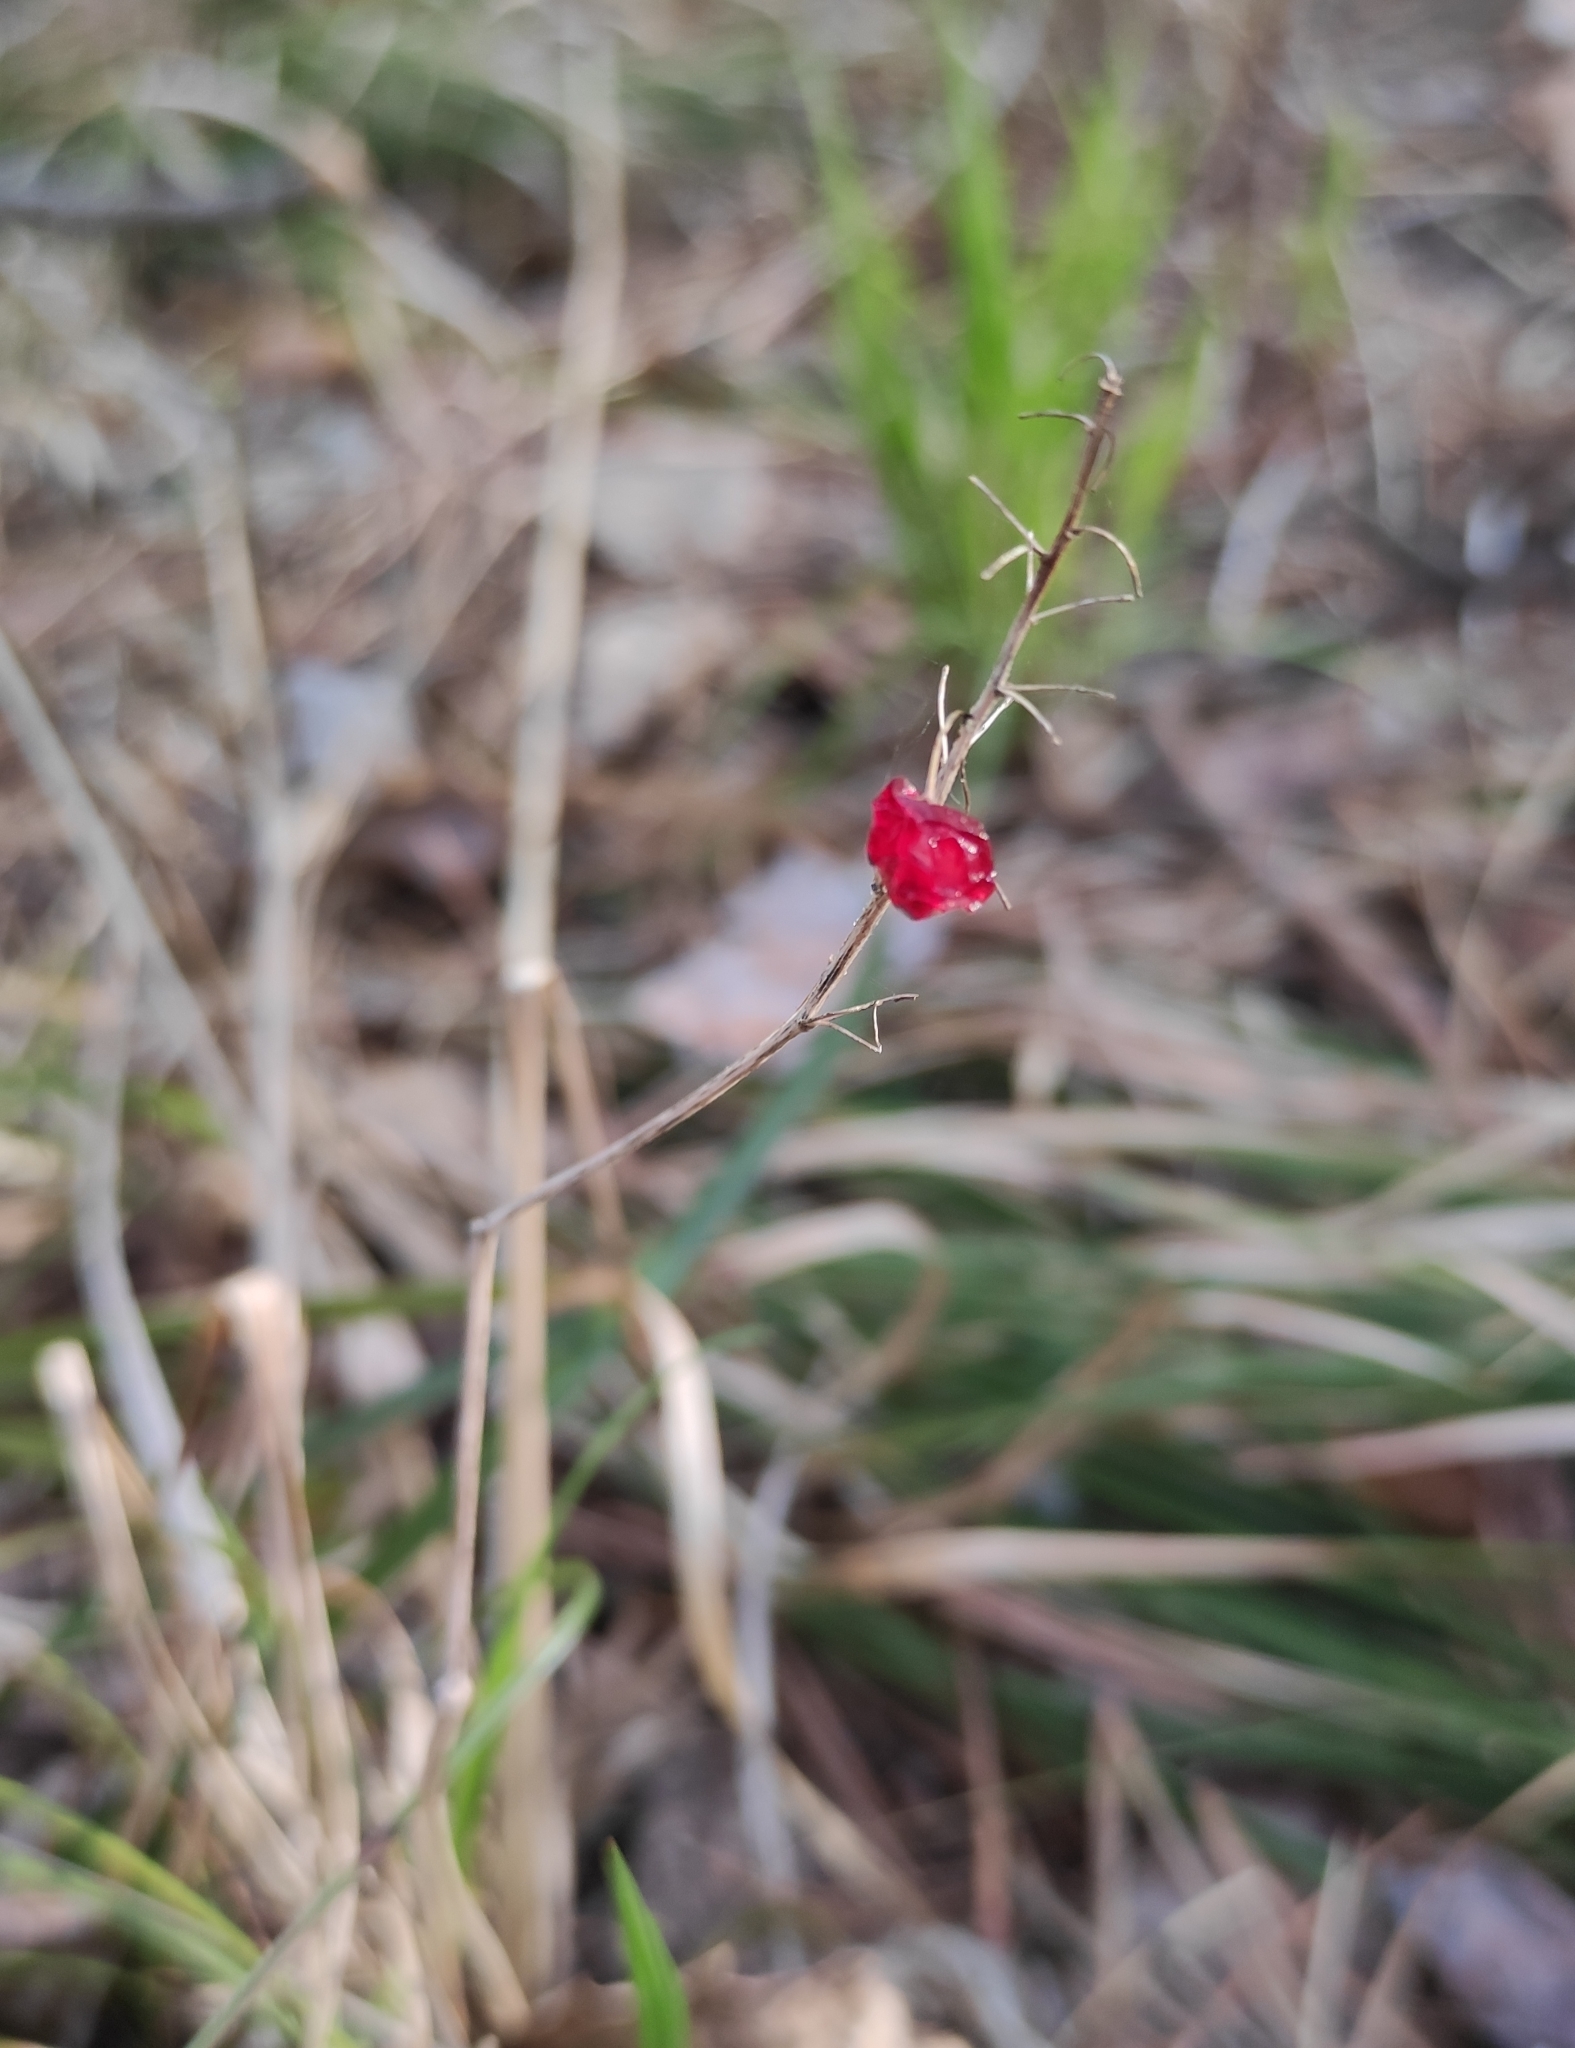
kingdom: Plantae
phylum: Tracheophyta
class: Liliopsida
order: Asparagales
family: Asparagaceae
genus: Maianthemum
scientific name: Maianthemum bifolium
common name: May lily
